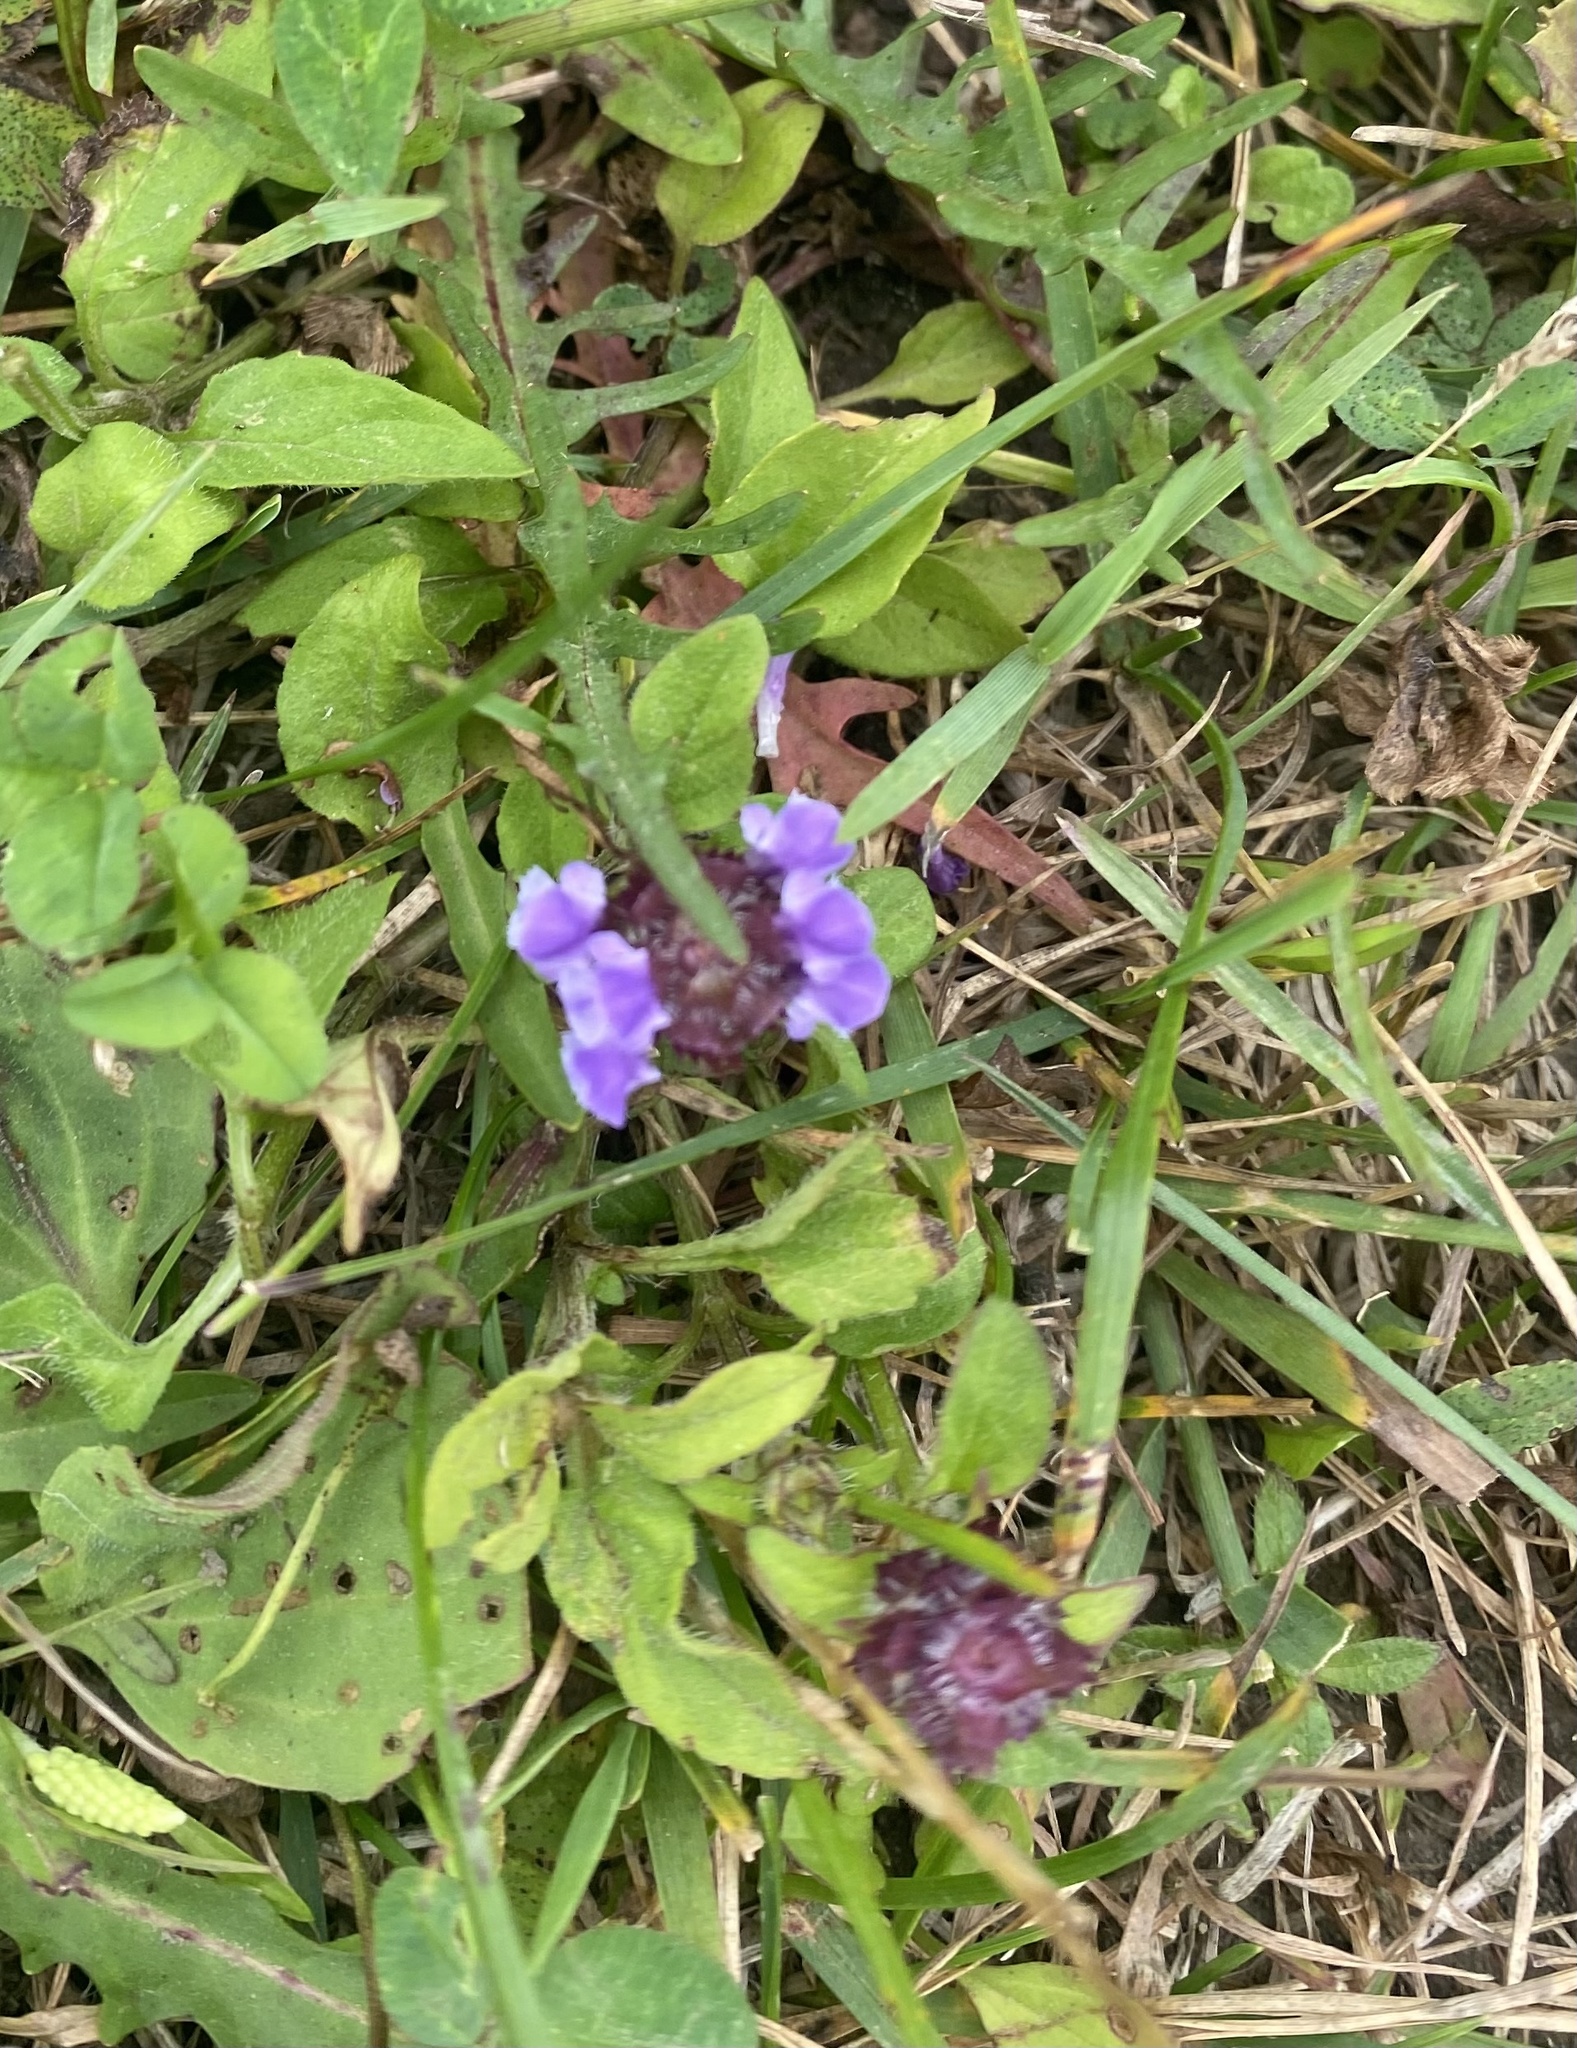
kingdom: Plantae
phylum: Tracheophyta
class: Magnoliopsida
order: Lamiales
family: Lamiaceae
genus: Prunella
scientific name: Prunella vulgaris
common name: Heal-all
